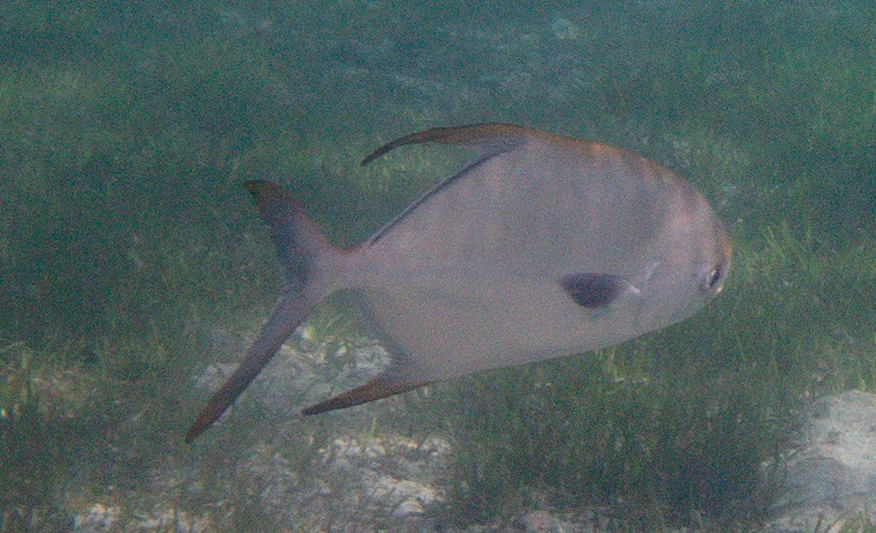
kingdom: Animalia
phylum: Chordata
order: Perciformes
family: Carangidae
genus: Trachinotus
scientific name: Trachinotus blochii
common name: Snubnose pompano
